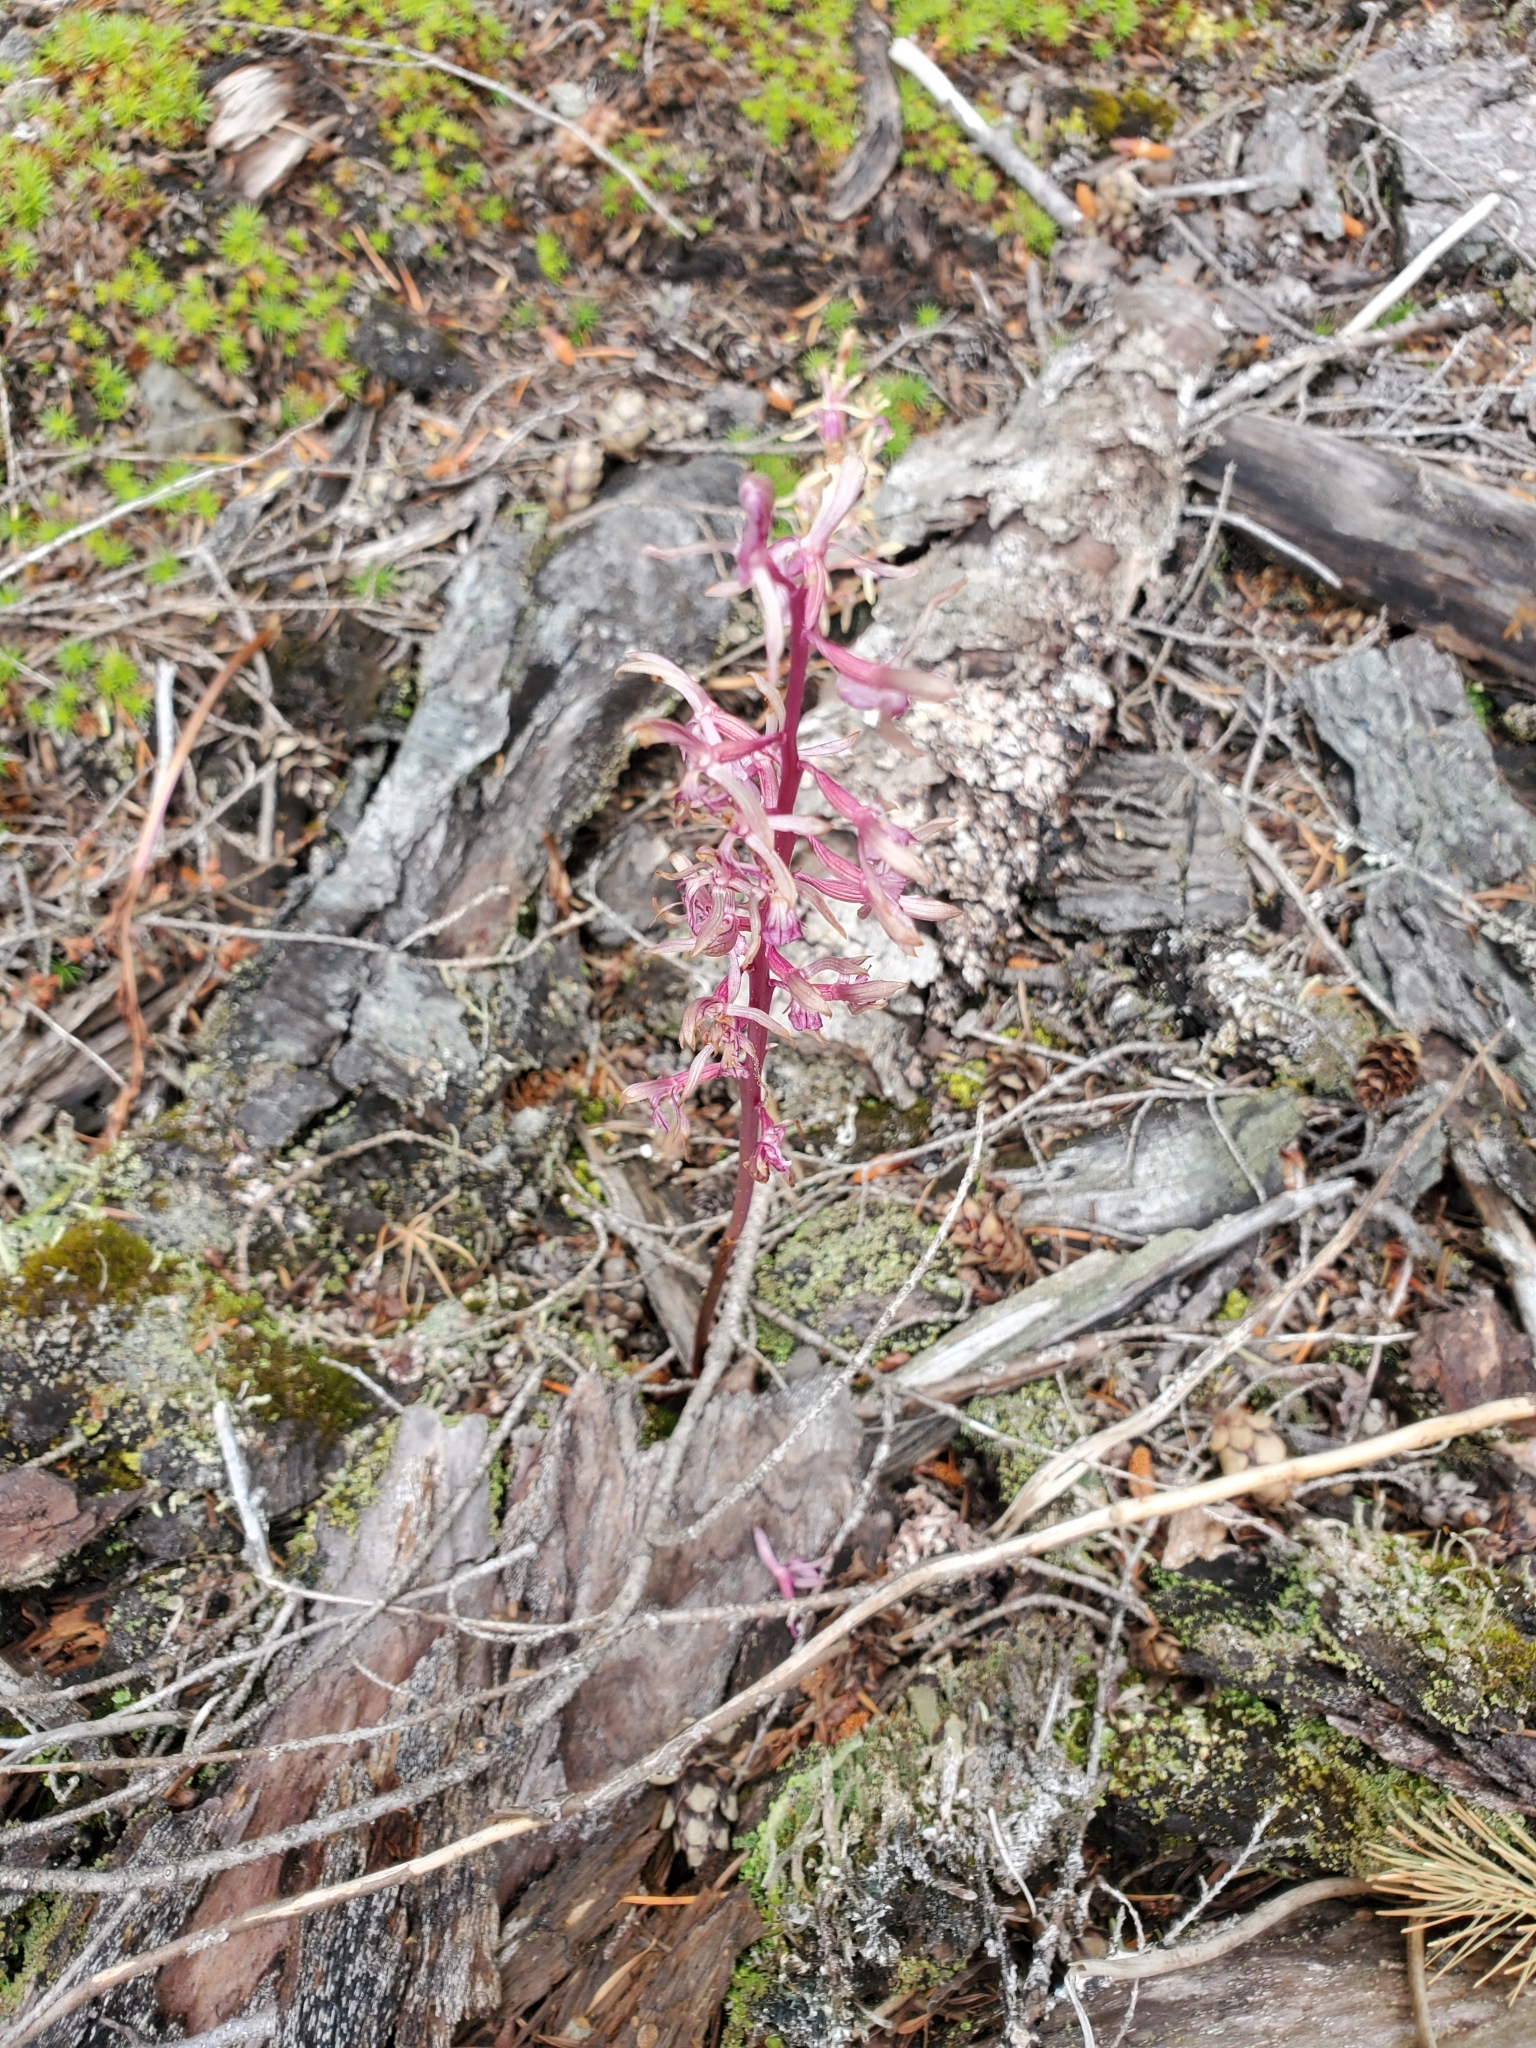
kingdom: Plantae
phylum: Tracheophyta
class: Liliopsida
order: Asparagales
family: Orchidaceae
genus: Corallorhiza
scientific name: Corallorhiza mertensiana
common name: Pacific coralroot
